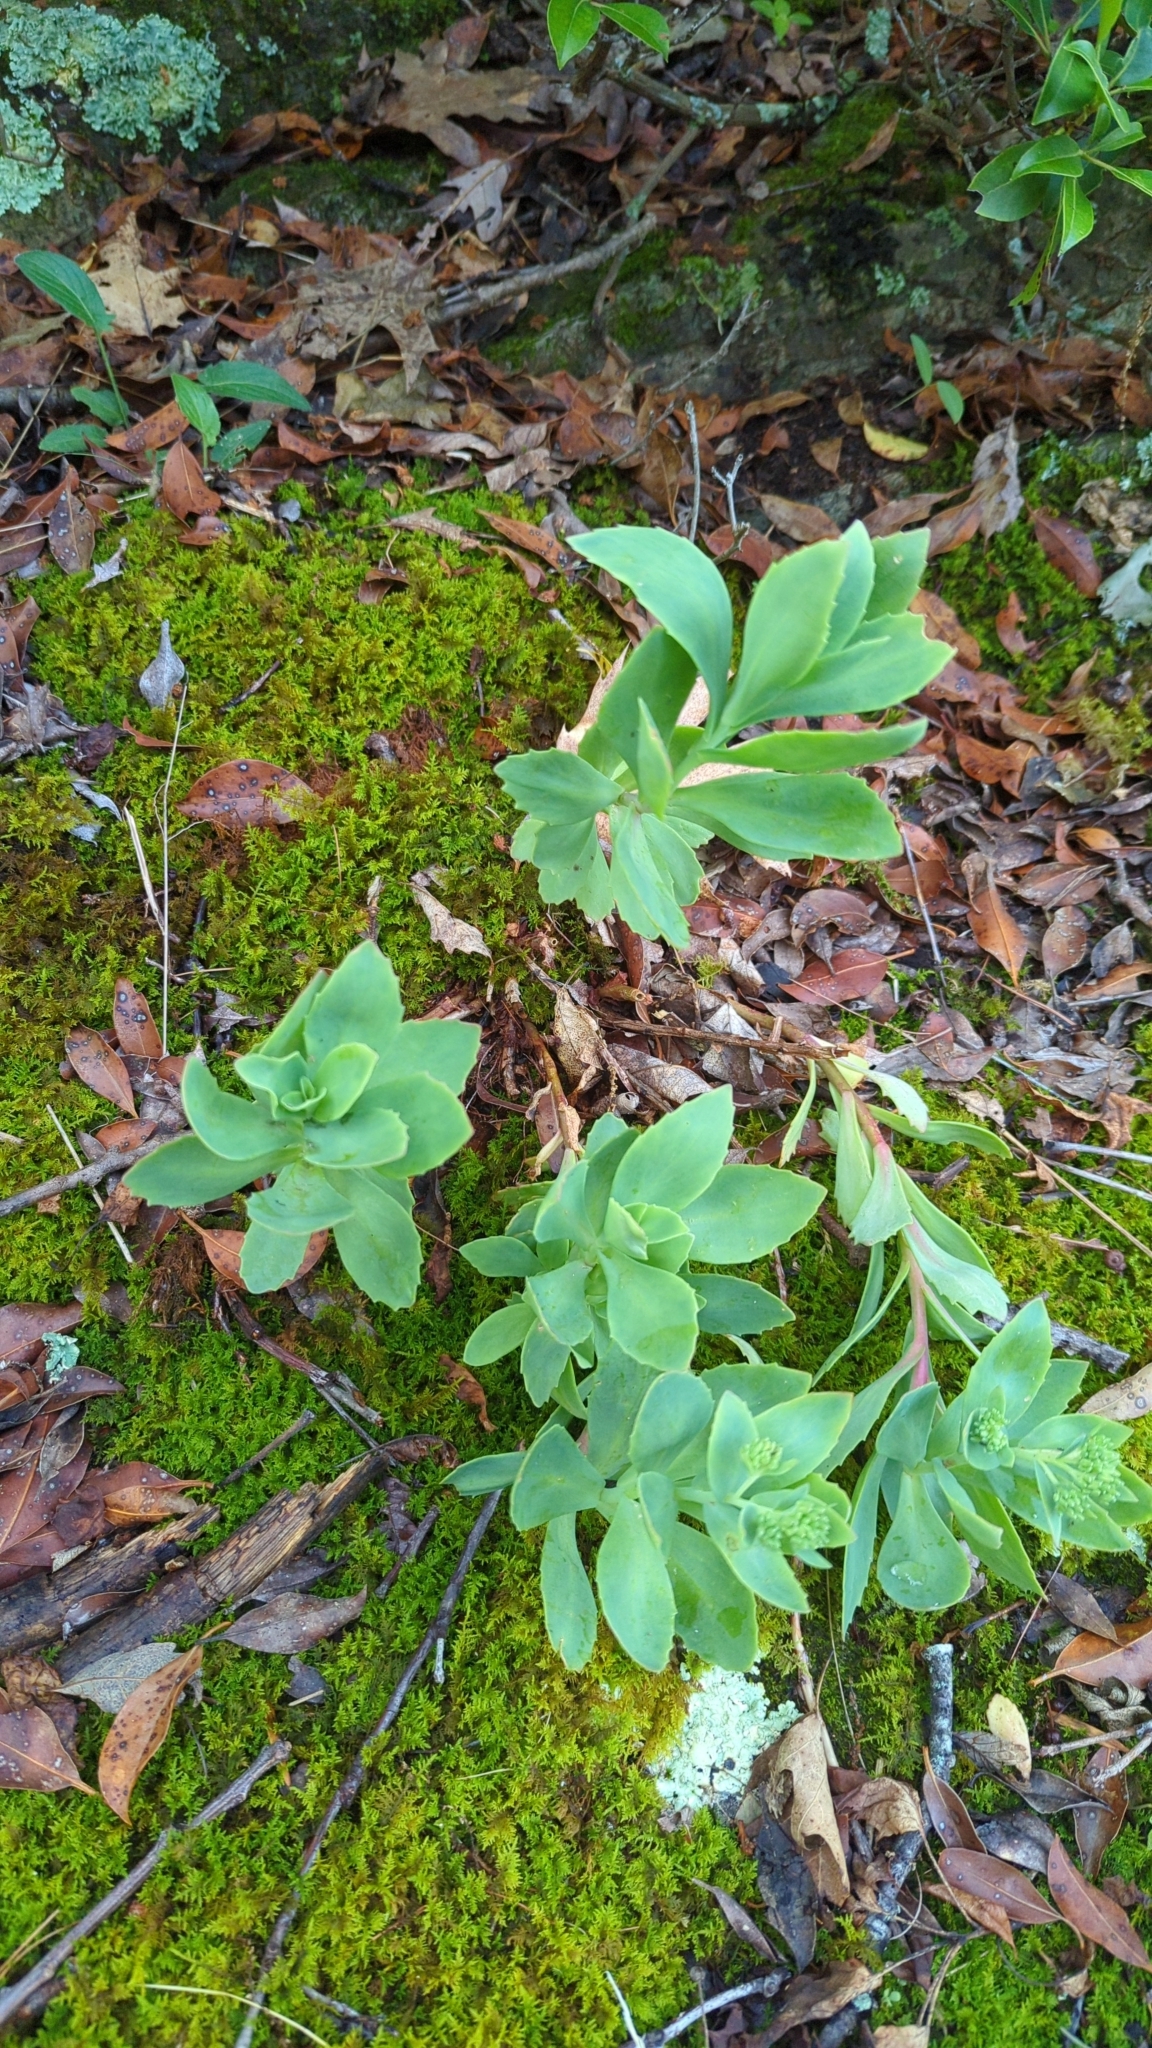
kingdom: Plantae
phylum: Tracheophyta
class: Magnoliopsida
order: Saxifragales
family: Crassulaceae
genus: Hylotelephium
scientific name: Hylotelephium telephioides
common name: Allegheny stonecrop
